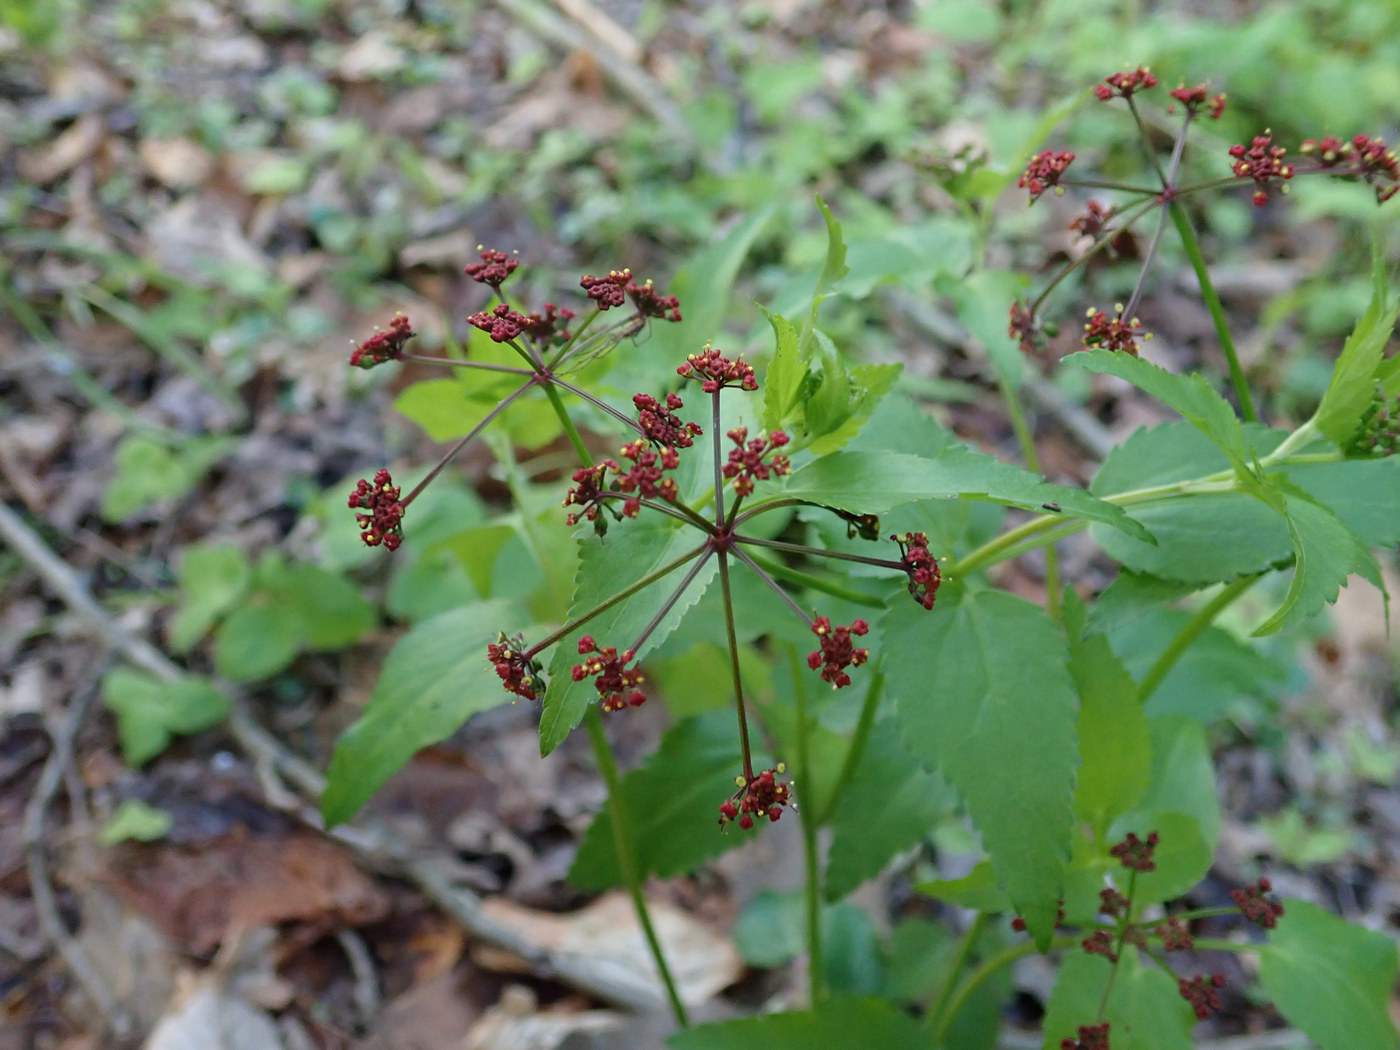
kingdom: Plantae
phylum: Tracheophyta
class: Magnoliopsida
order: Apiales
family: Apiaceae
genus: Thaspium
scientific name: Thaspium trifoliatum
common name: Purple meadow-parsnip
